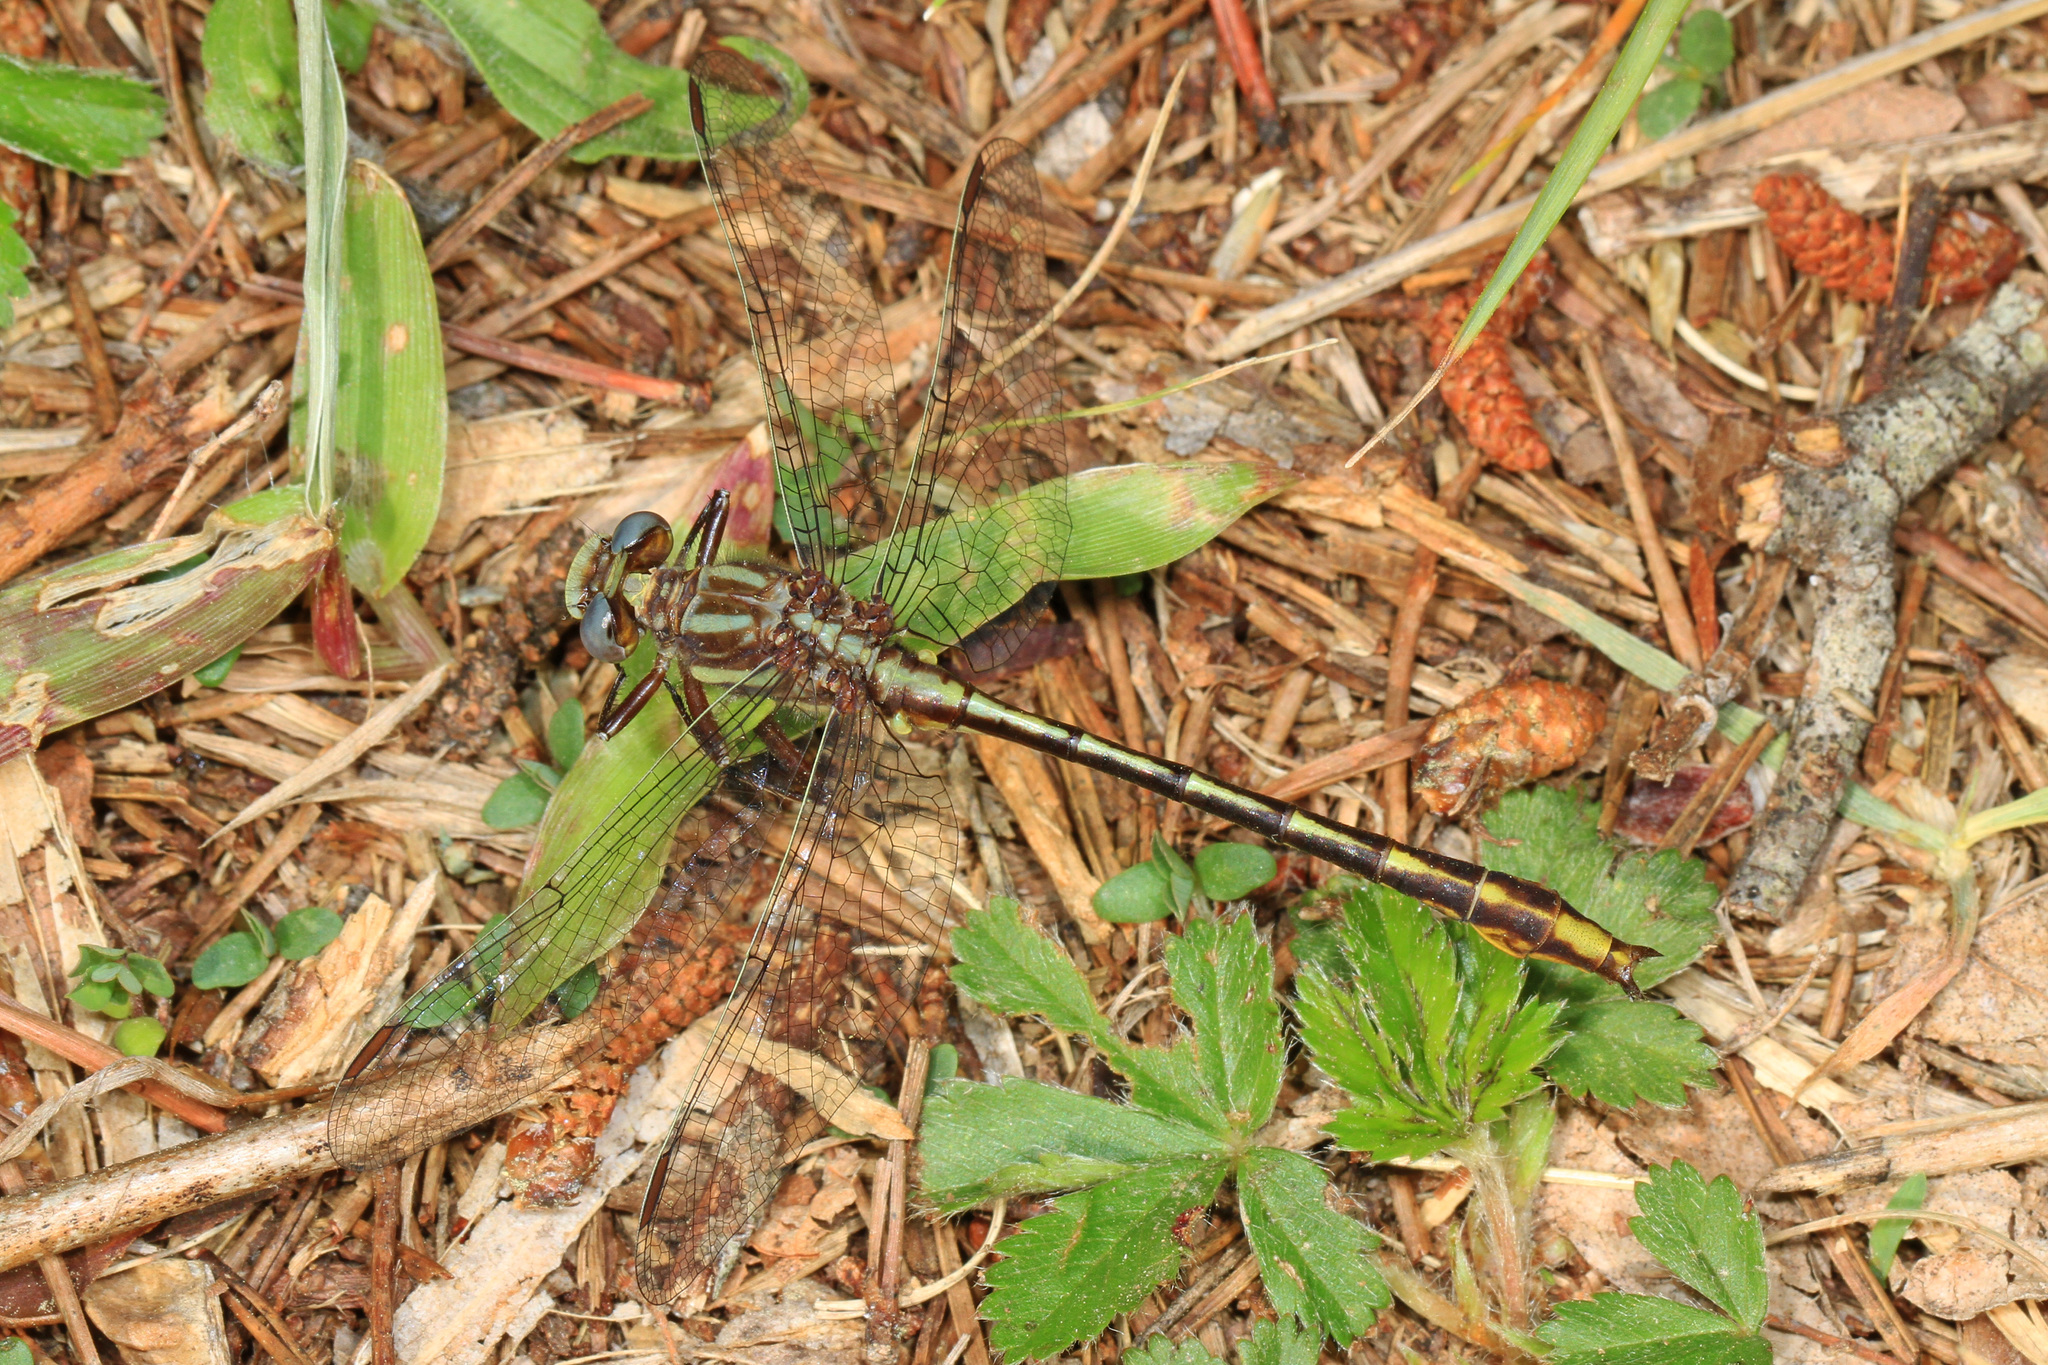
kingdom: Animalia
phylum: Arthropoda
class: Insecta
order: Odonata
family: Gomphidae
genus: Phanogomphus
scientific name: Phanogomphus exilis
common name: Lancet clubtail
